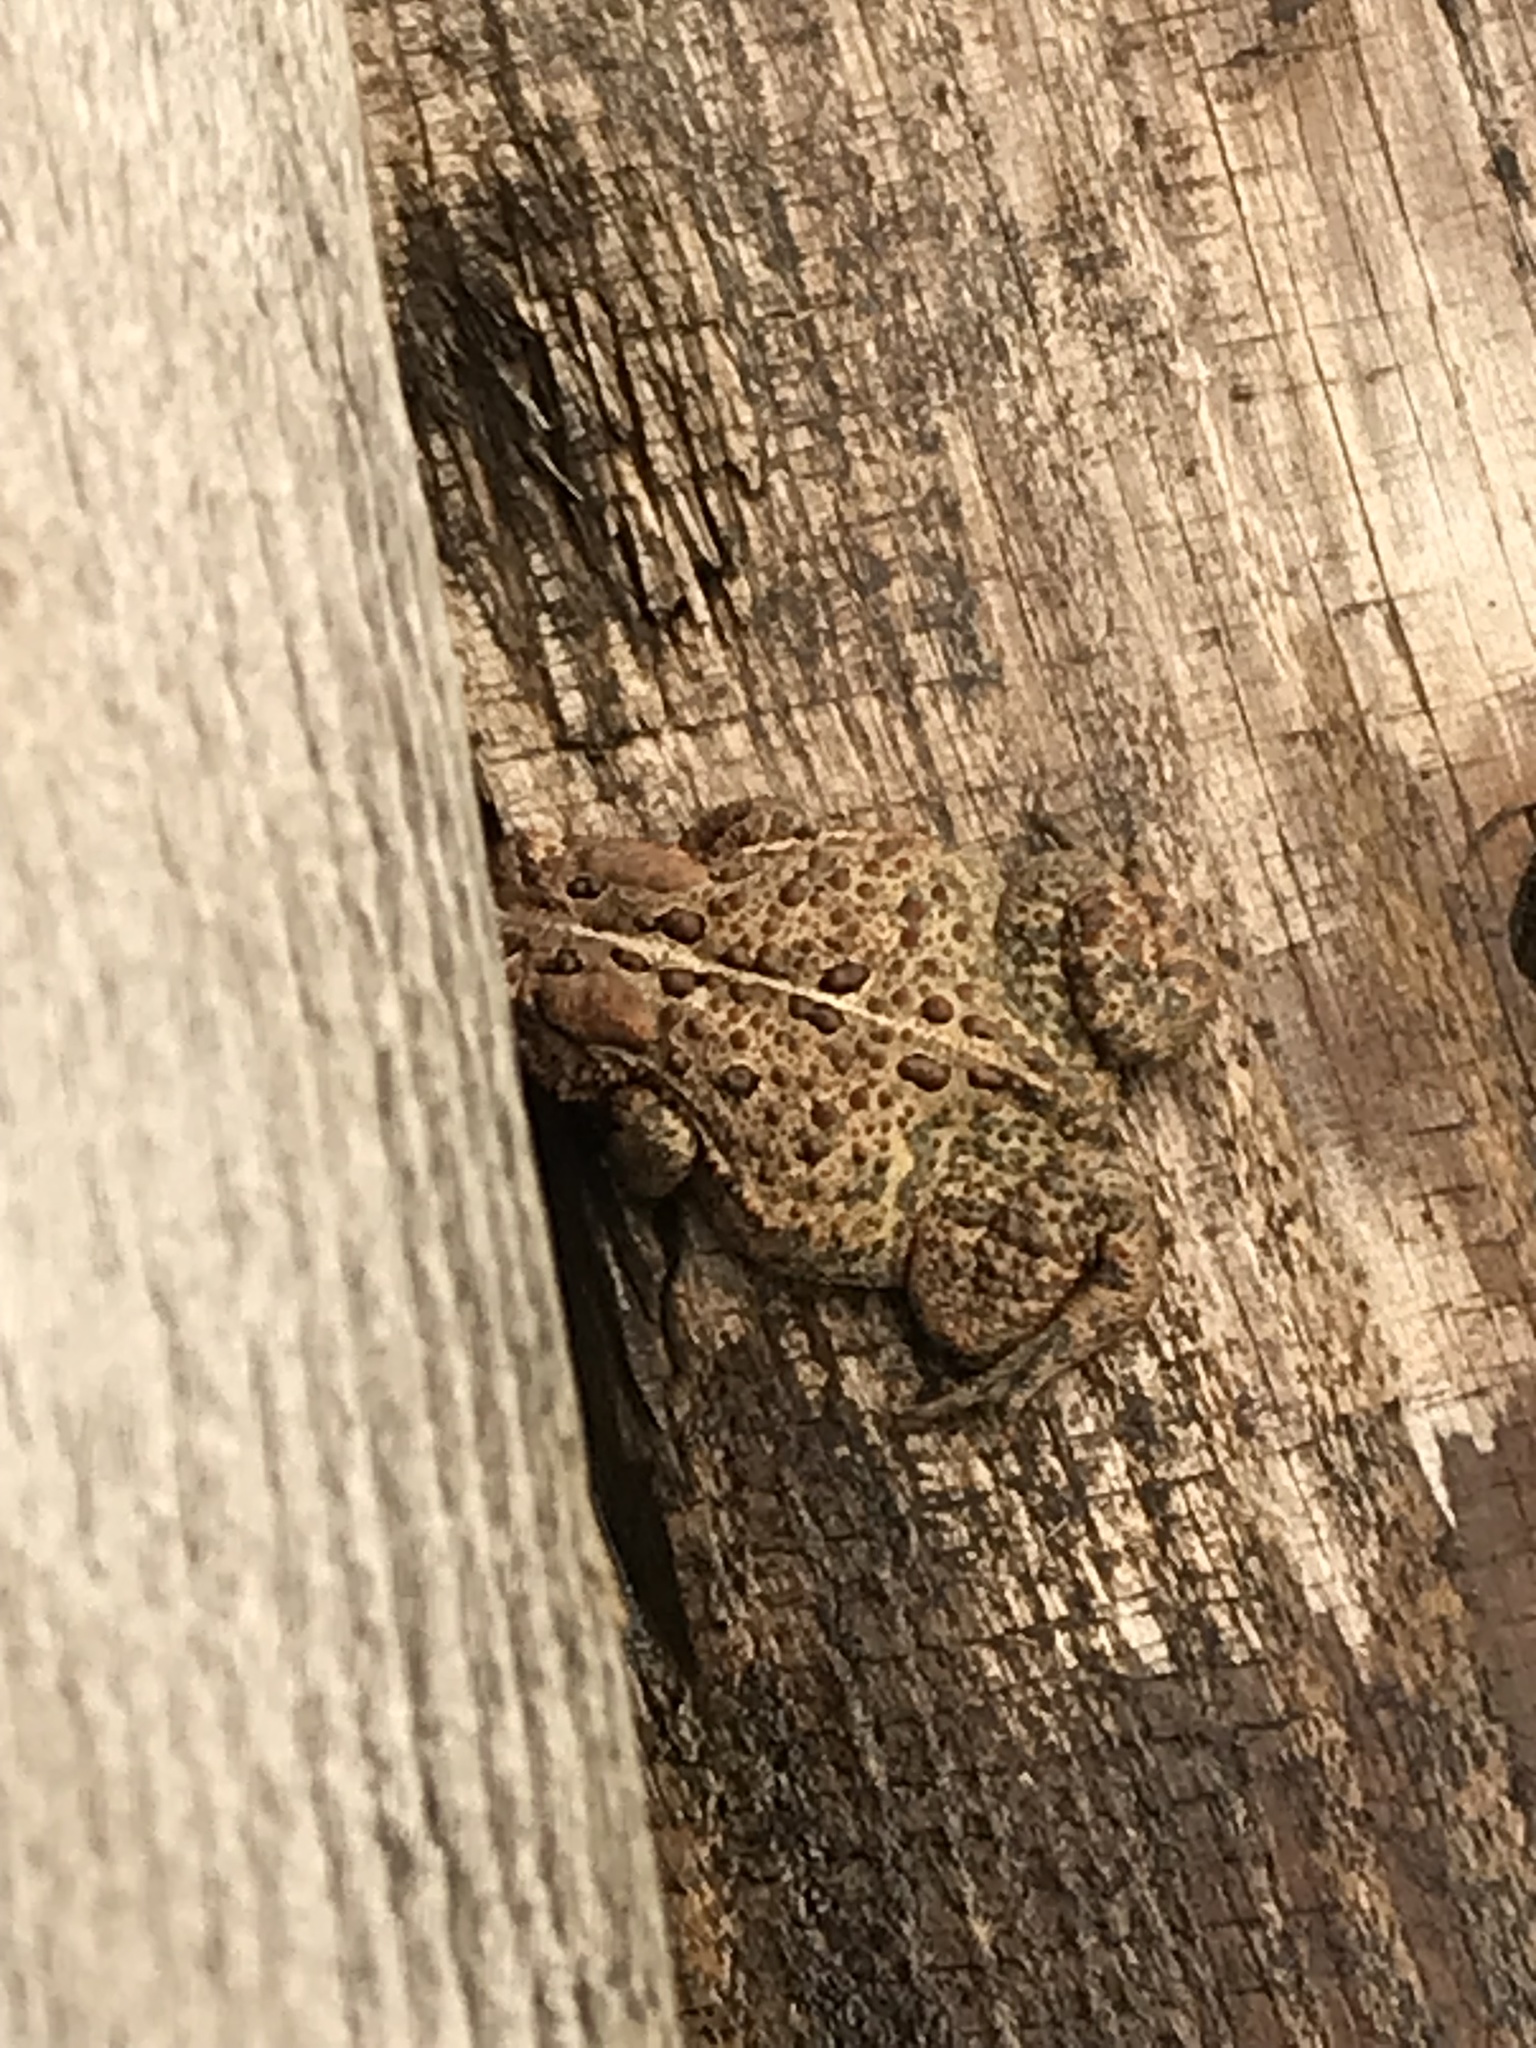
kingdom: Animalia
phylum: Chordata
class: Amphibia
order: Anura
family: Bufonidae
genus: Anaxyrus
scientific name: Anaxyrus americanus
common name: American toad
